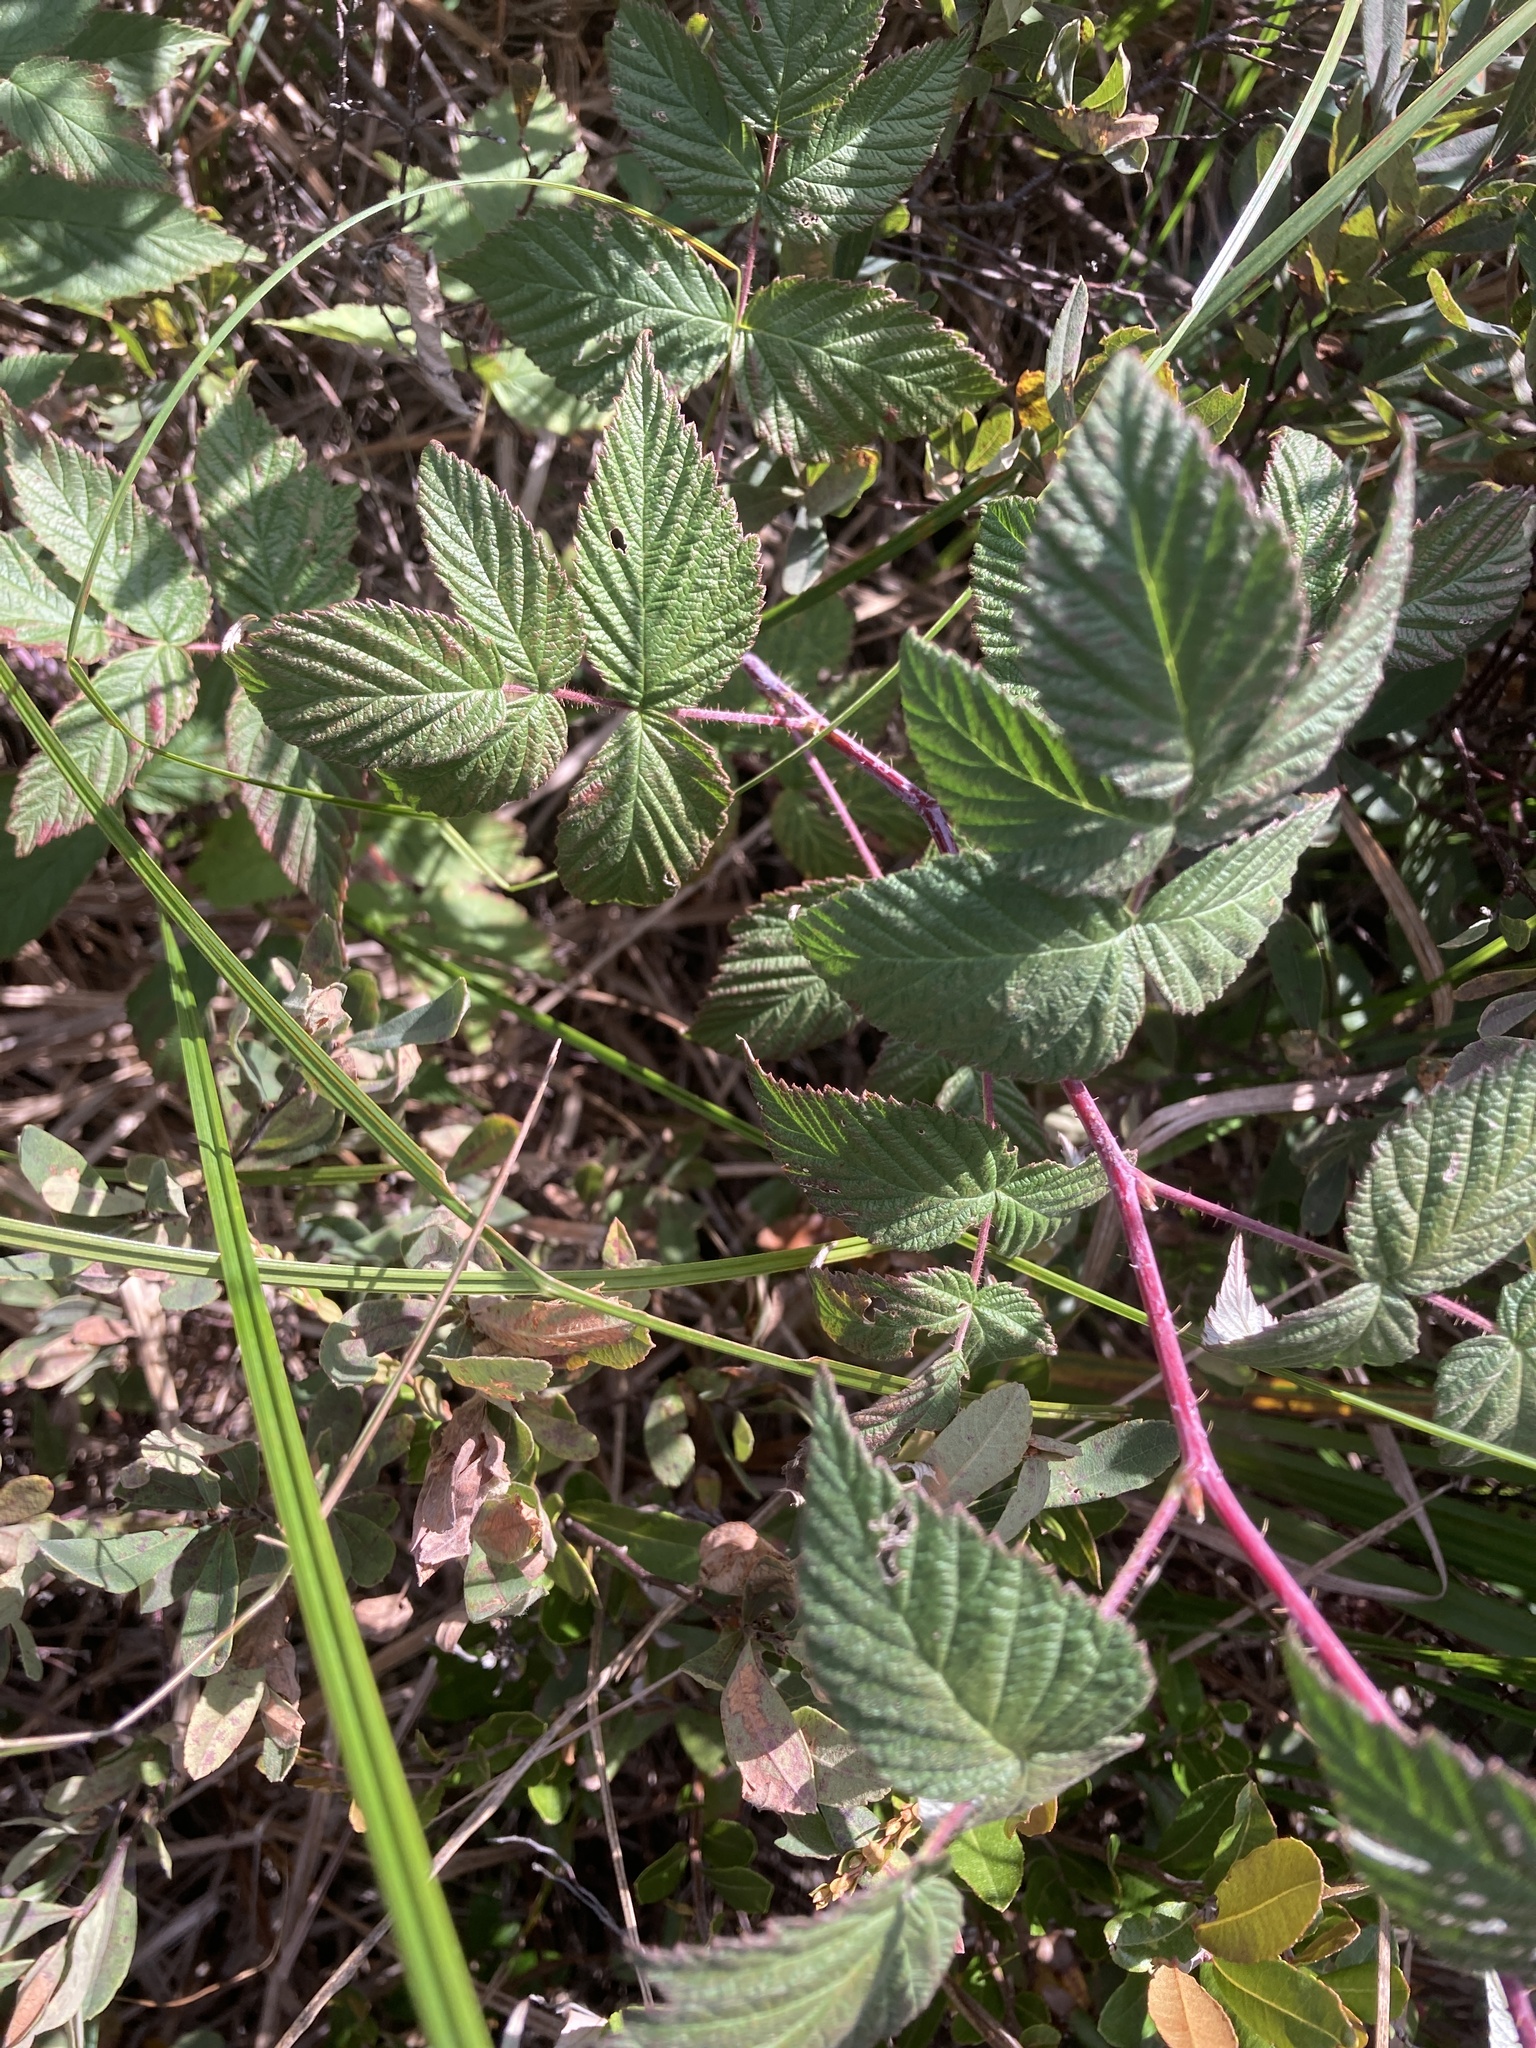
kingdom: Plantae
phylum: Tracheophyta
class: Magnoliopsida
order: Rosales
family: Rosaceae
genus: Rubus
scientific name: Rubus idaeus
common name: Raspberry
